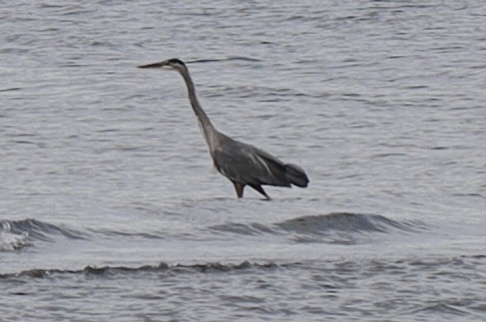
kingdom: Animalia
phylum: Chordata
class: Aves
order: Pelecaniformes
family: Ardeidae
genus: Ardea
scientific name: Ardea herodias
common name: Great blue heron
